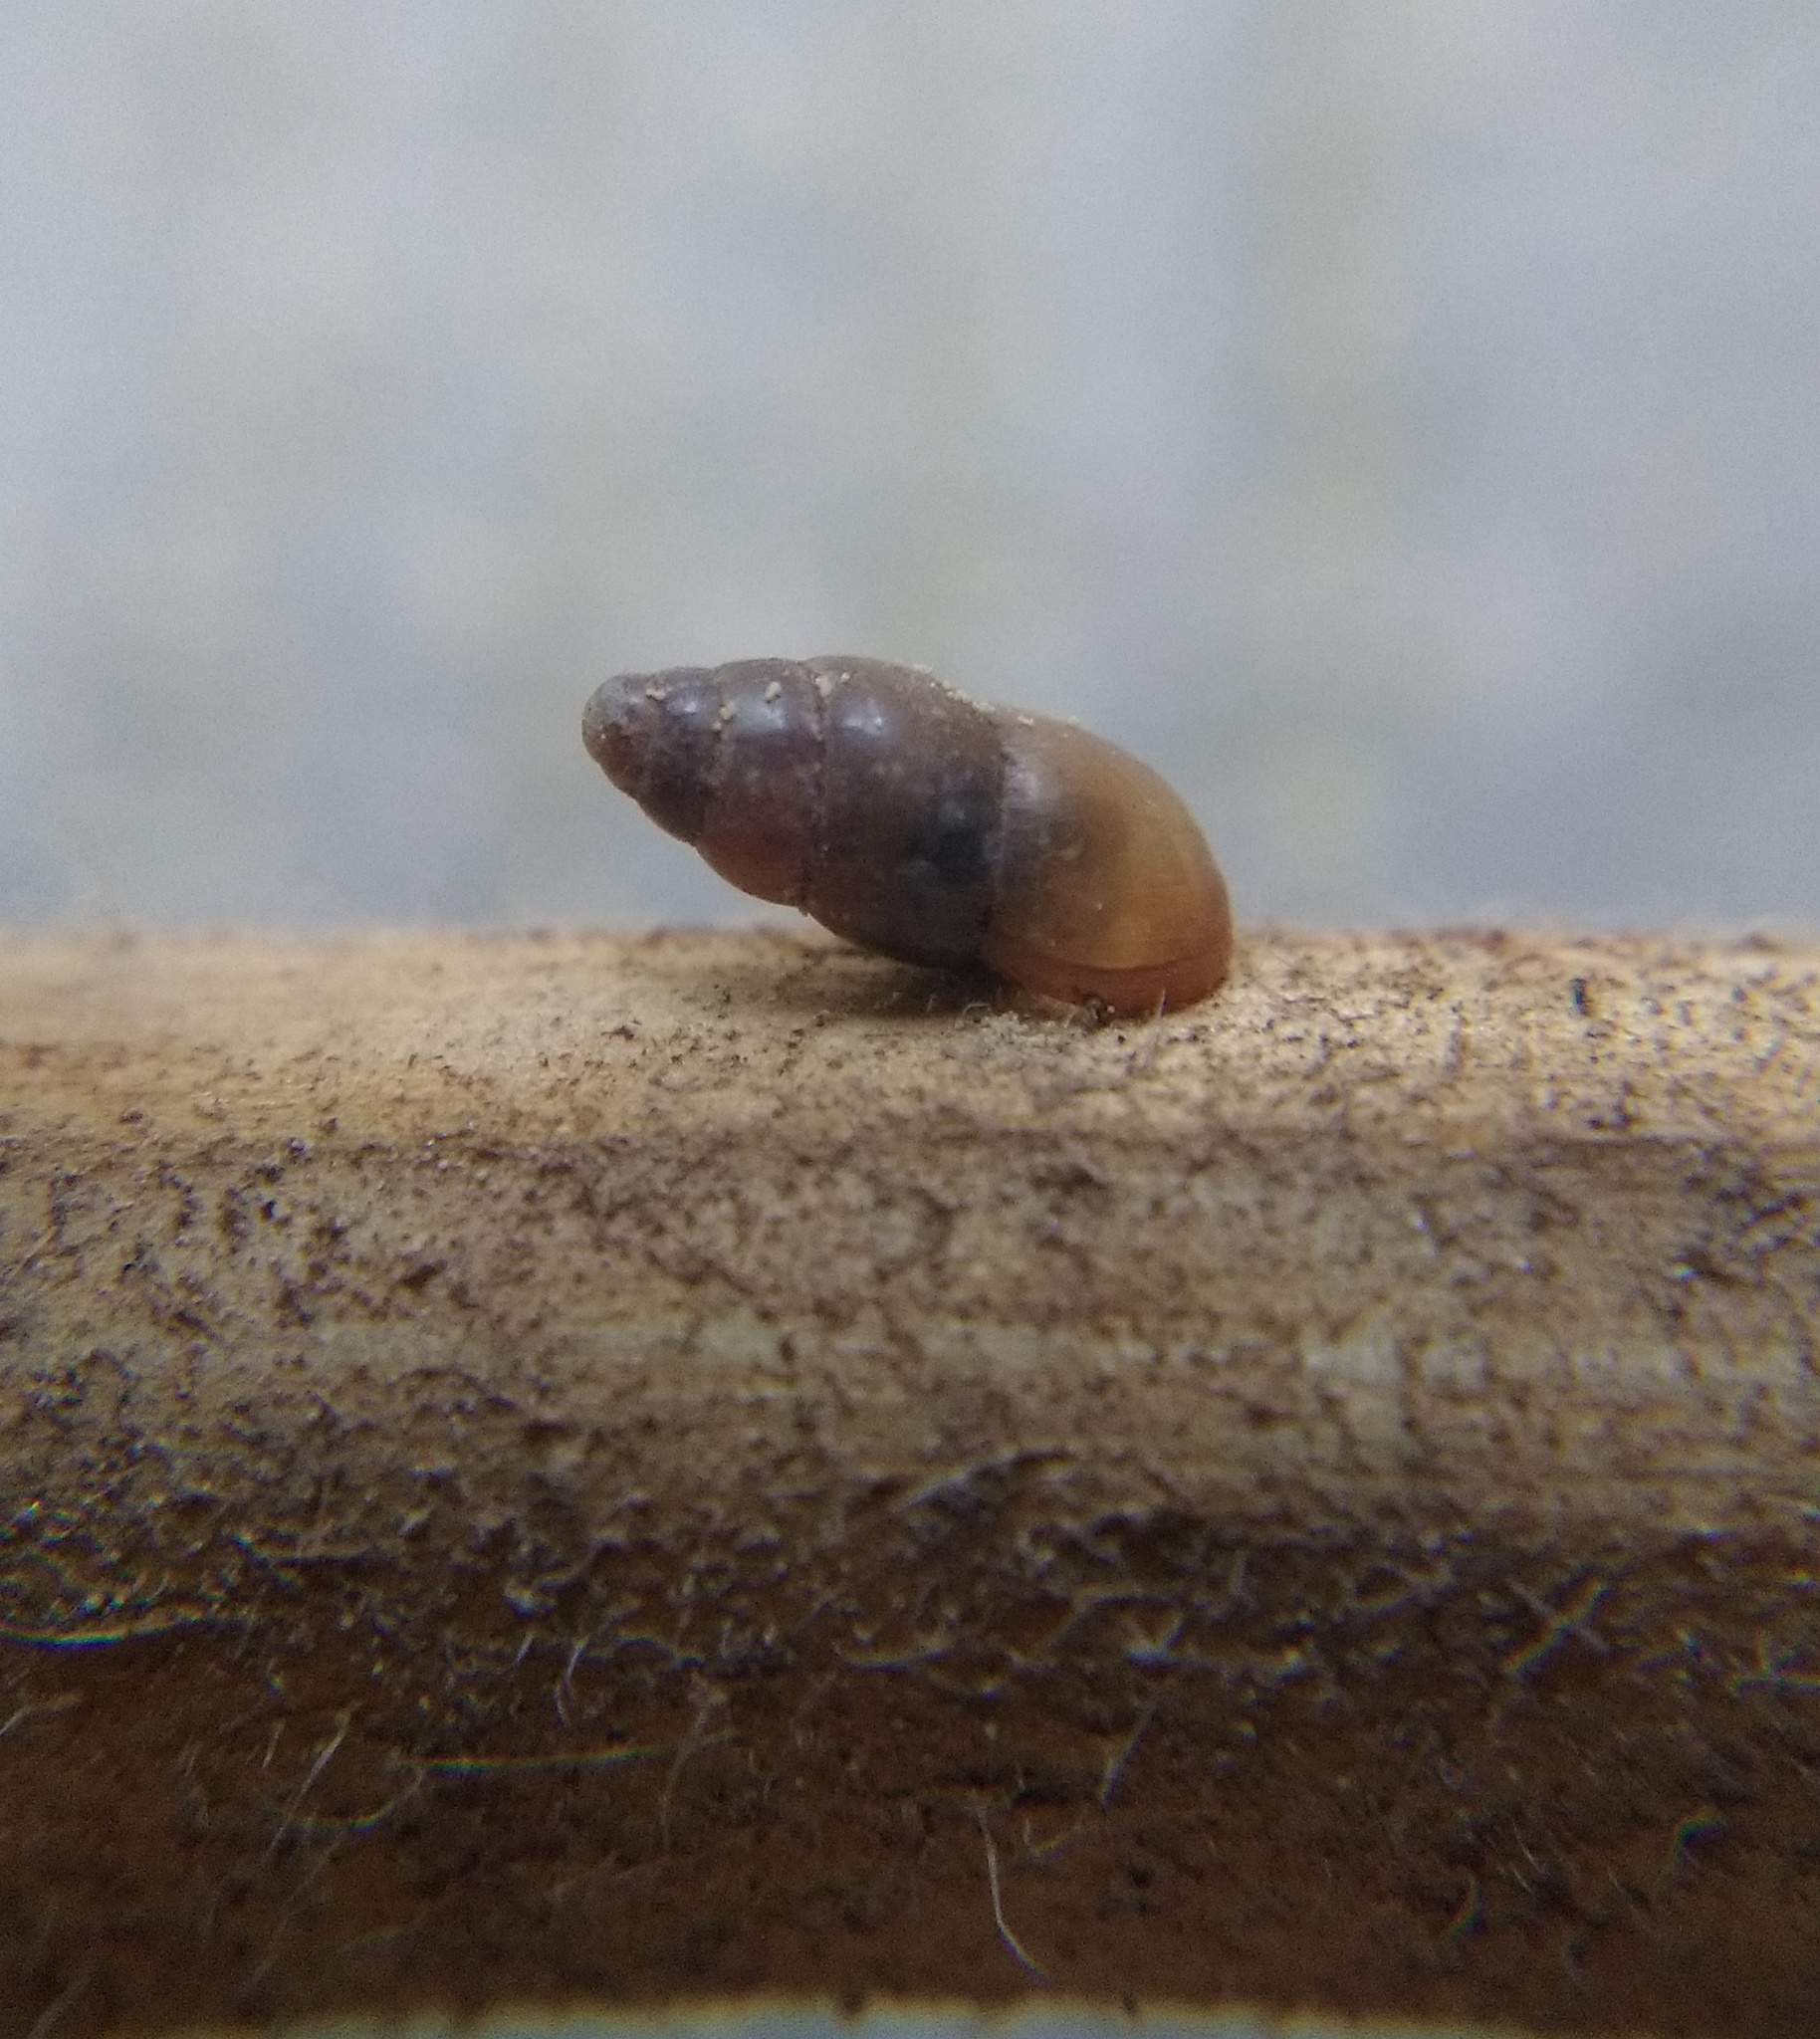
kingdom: Animalia
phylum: Mollusca
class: Gastropoda
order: Stylommatophora
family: Cochlicopidae
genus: Cochlicopa
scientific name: Cochlicopa lubrica
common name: Glossy pillar snail
